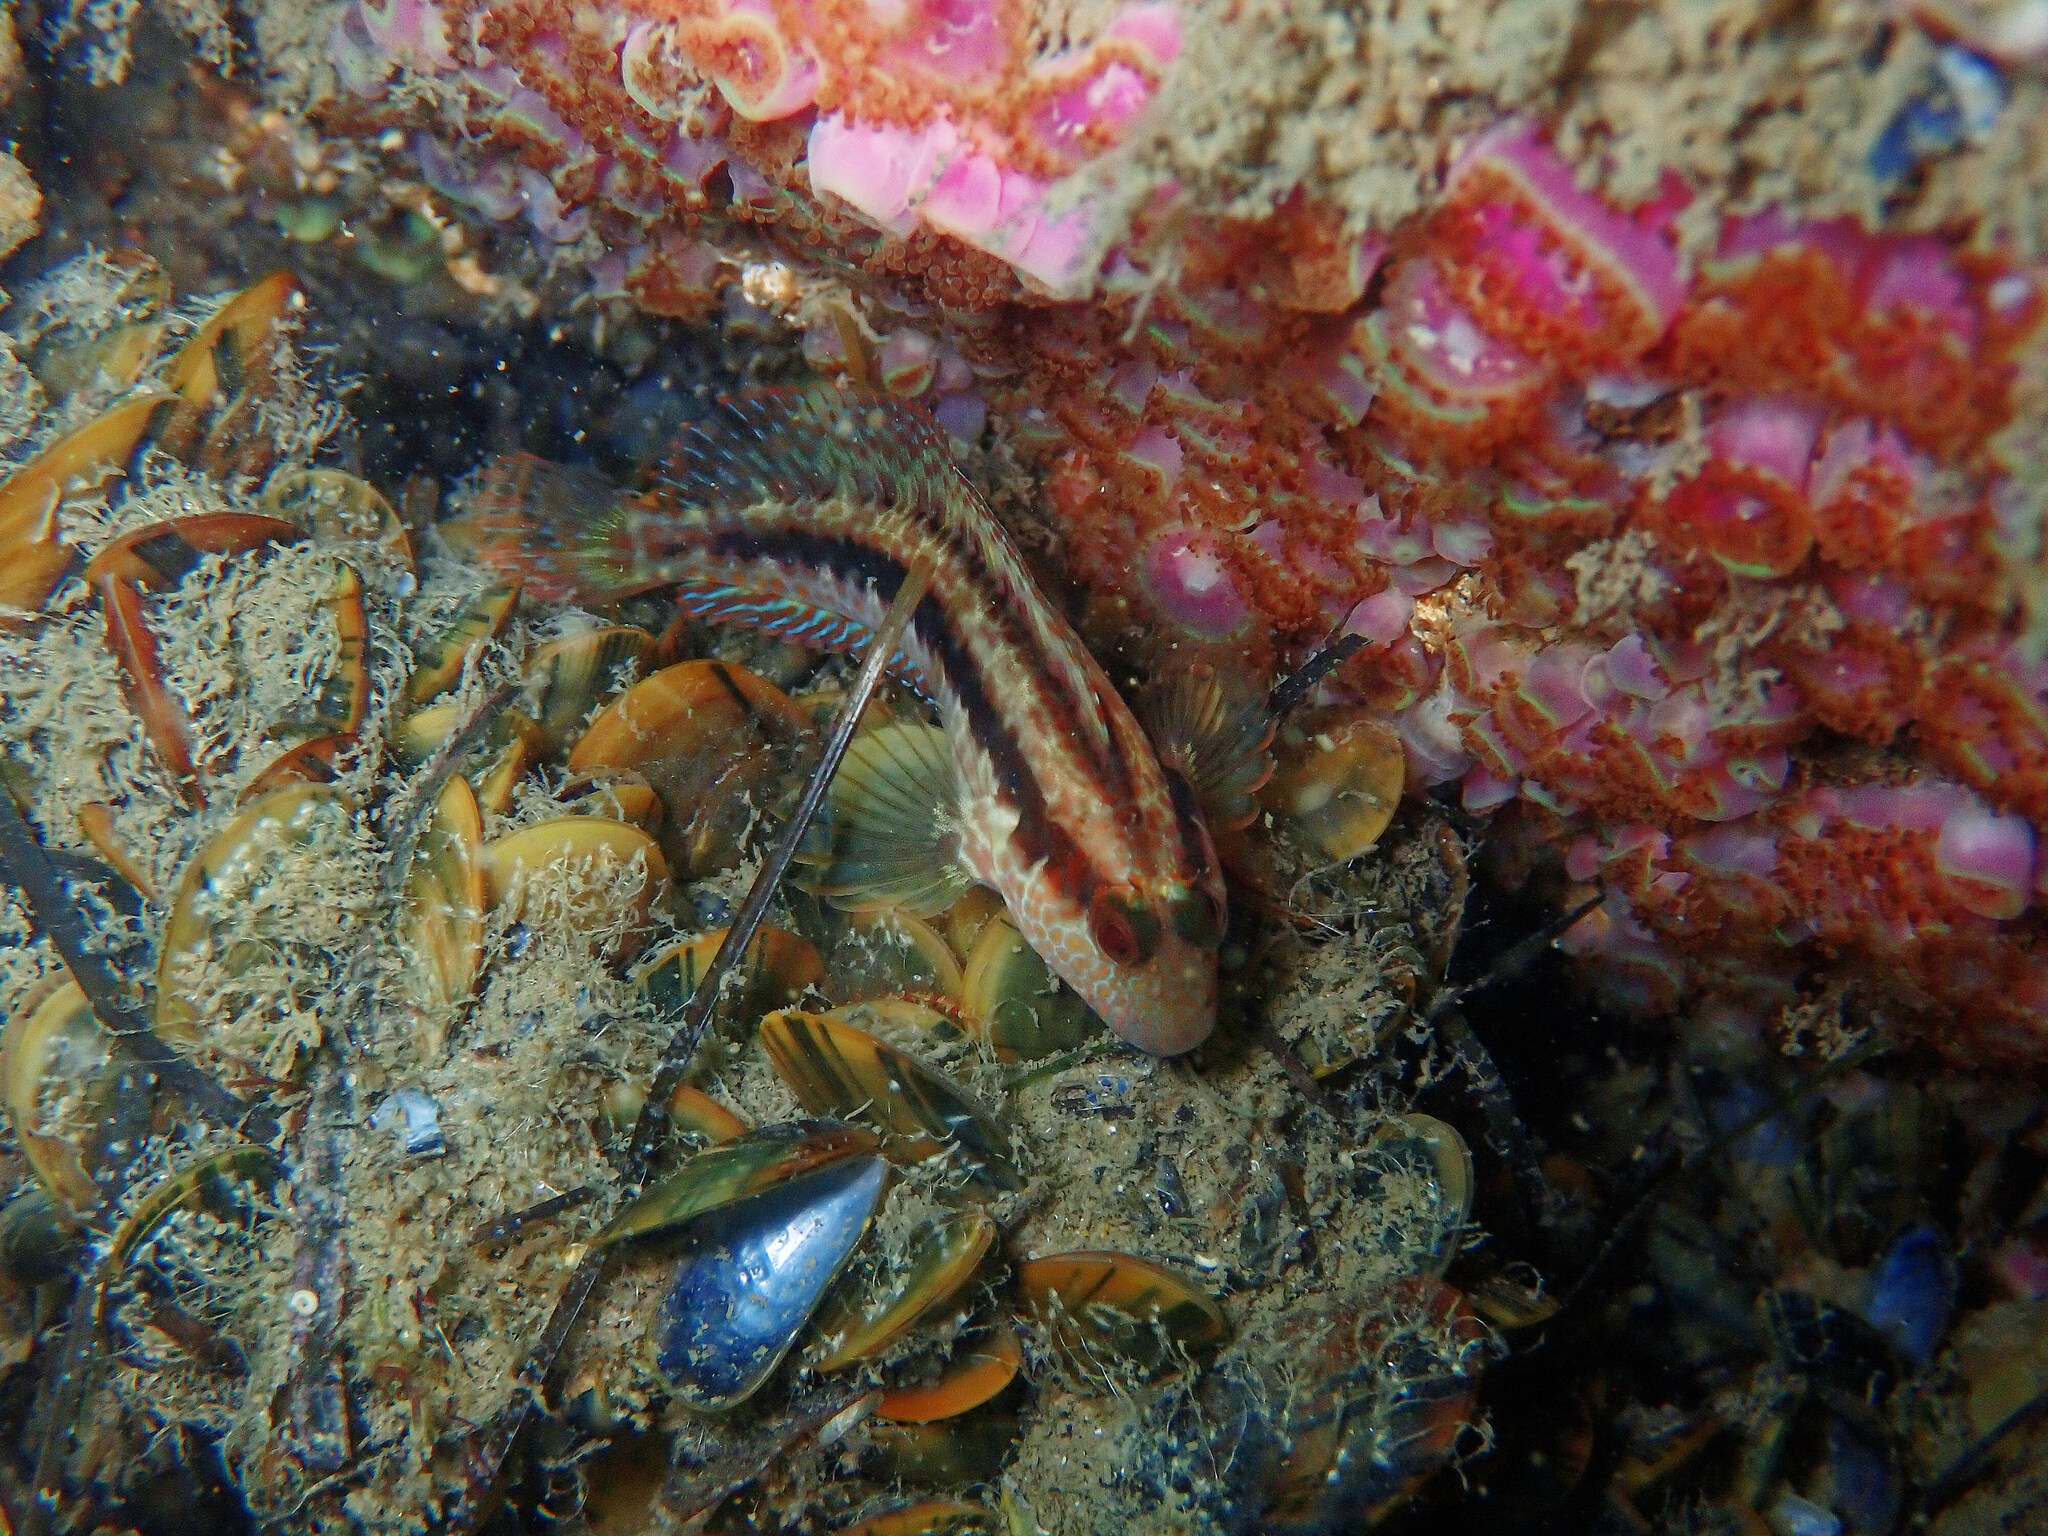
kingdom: Animalia
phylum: Chordata
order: Perciformes
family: Blenniidae
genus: Parablennius
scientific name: Parablennius pilicornis
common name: Ringneck blenny
